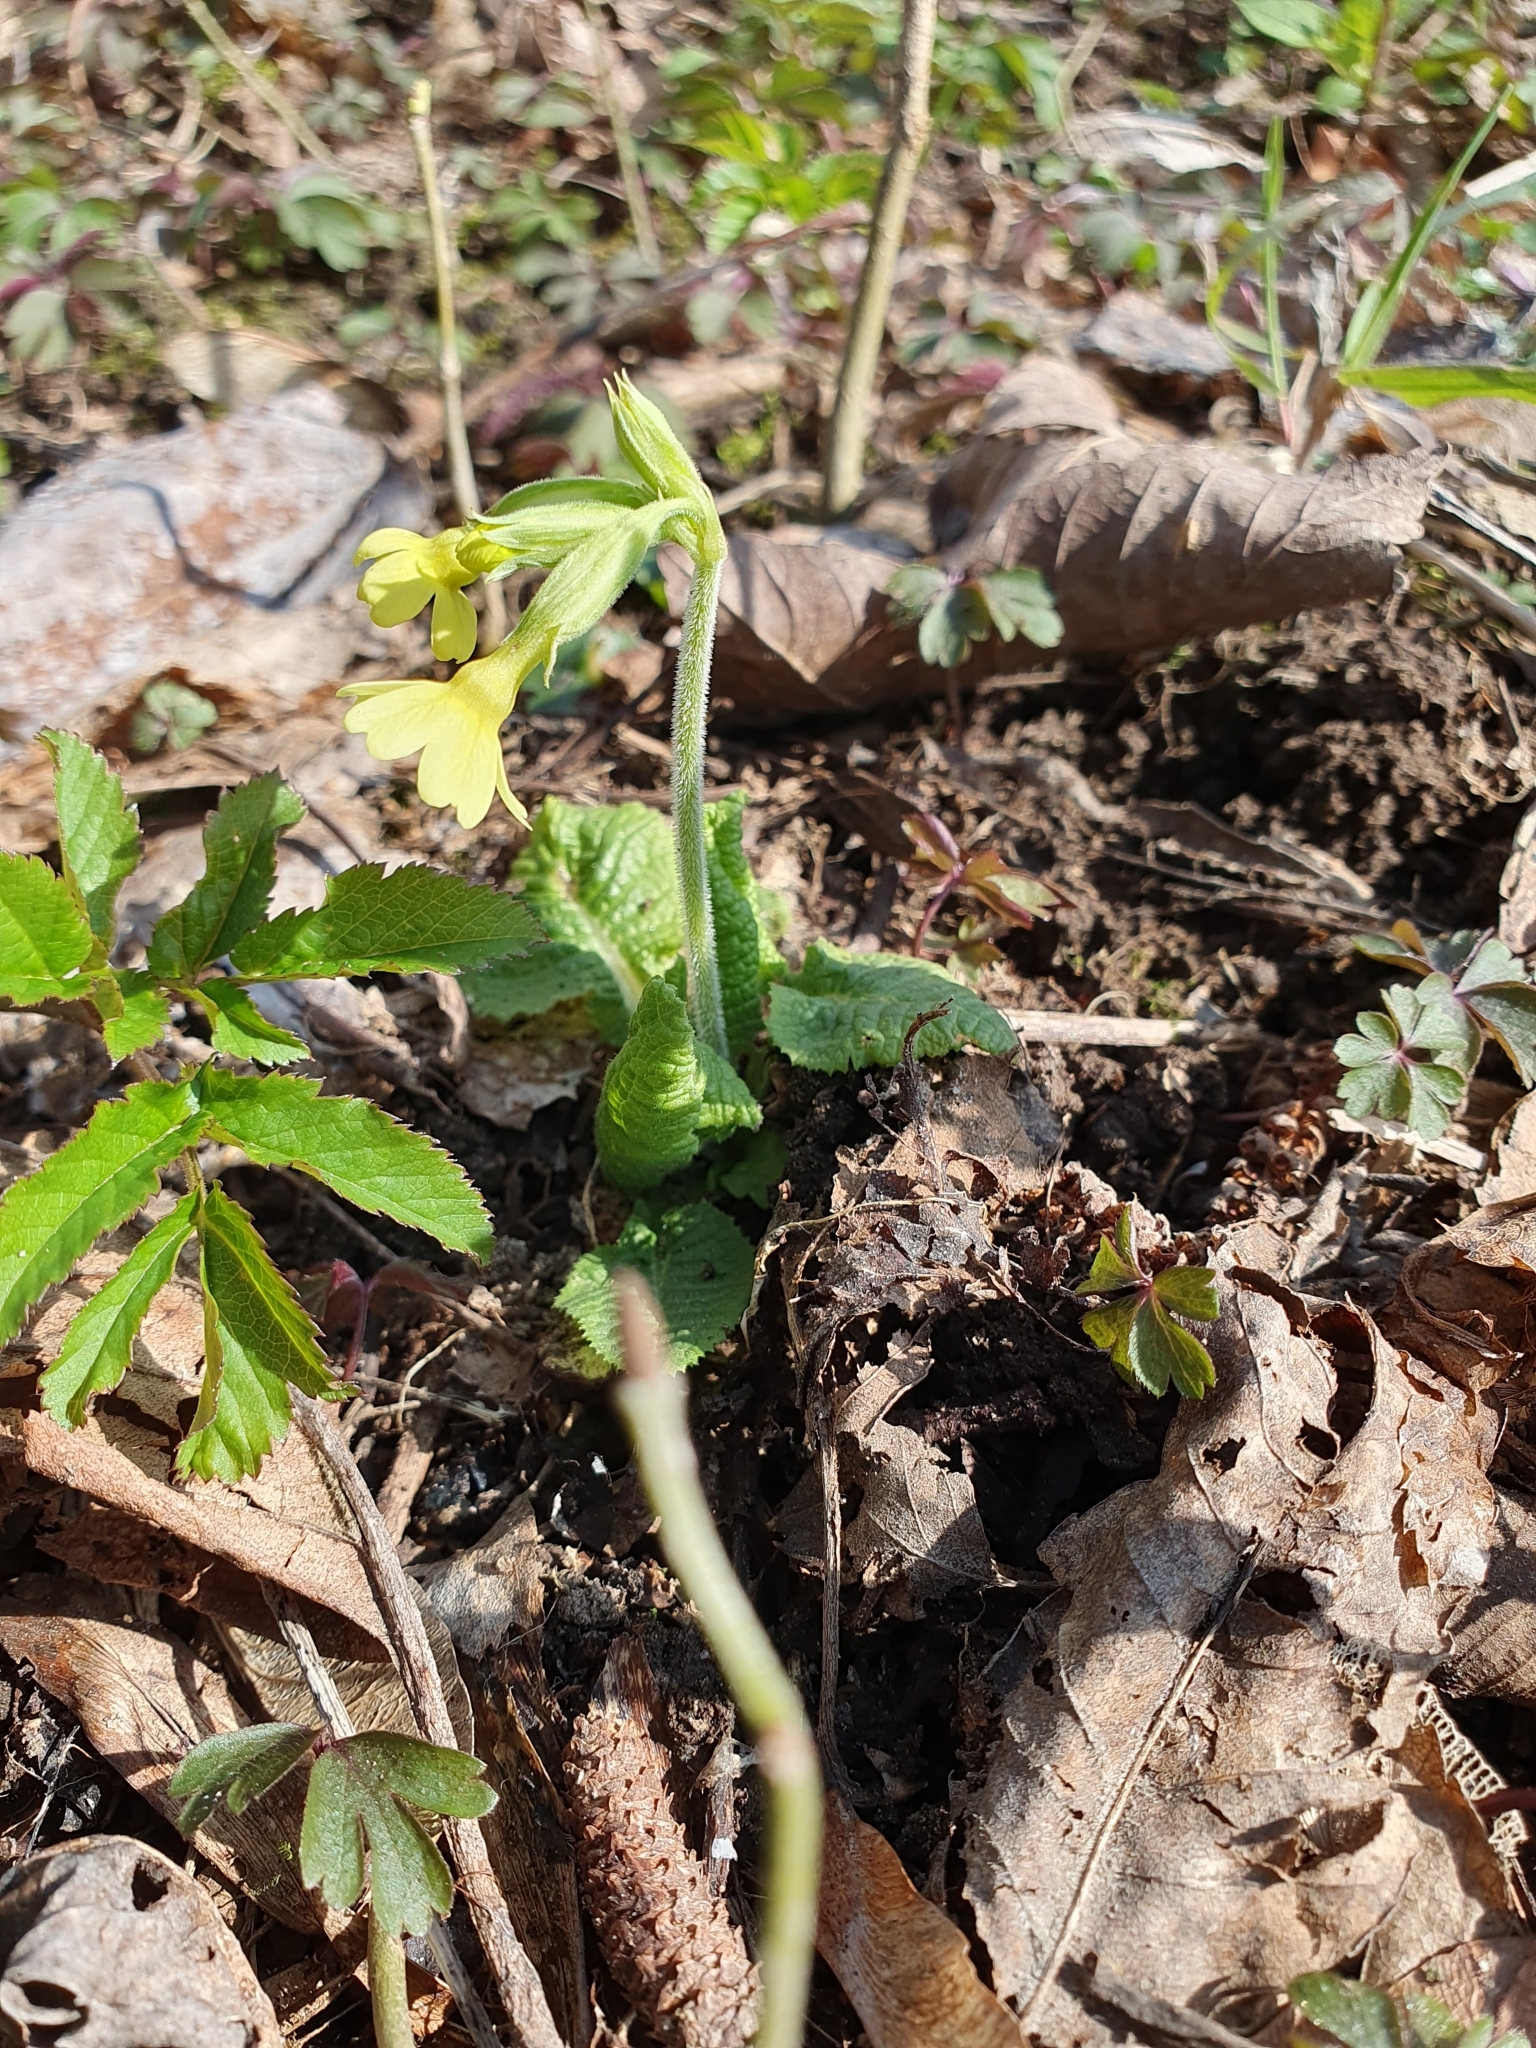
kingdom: Plantae
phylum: Tracheophyta
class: Magnoliopsida
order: Ericales
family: Primulaceae
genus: Primula
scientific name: Primula elatior
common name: Oxlip
